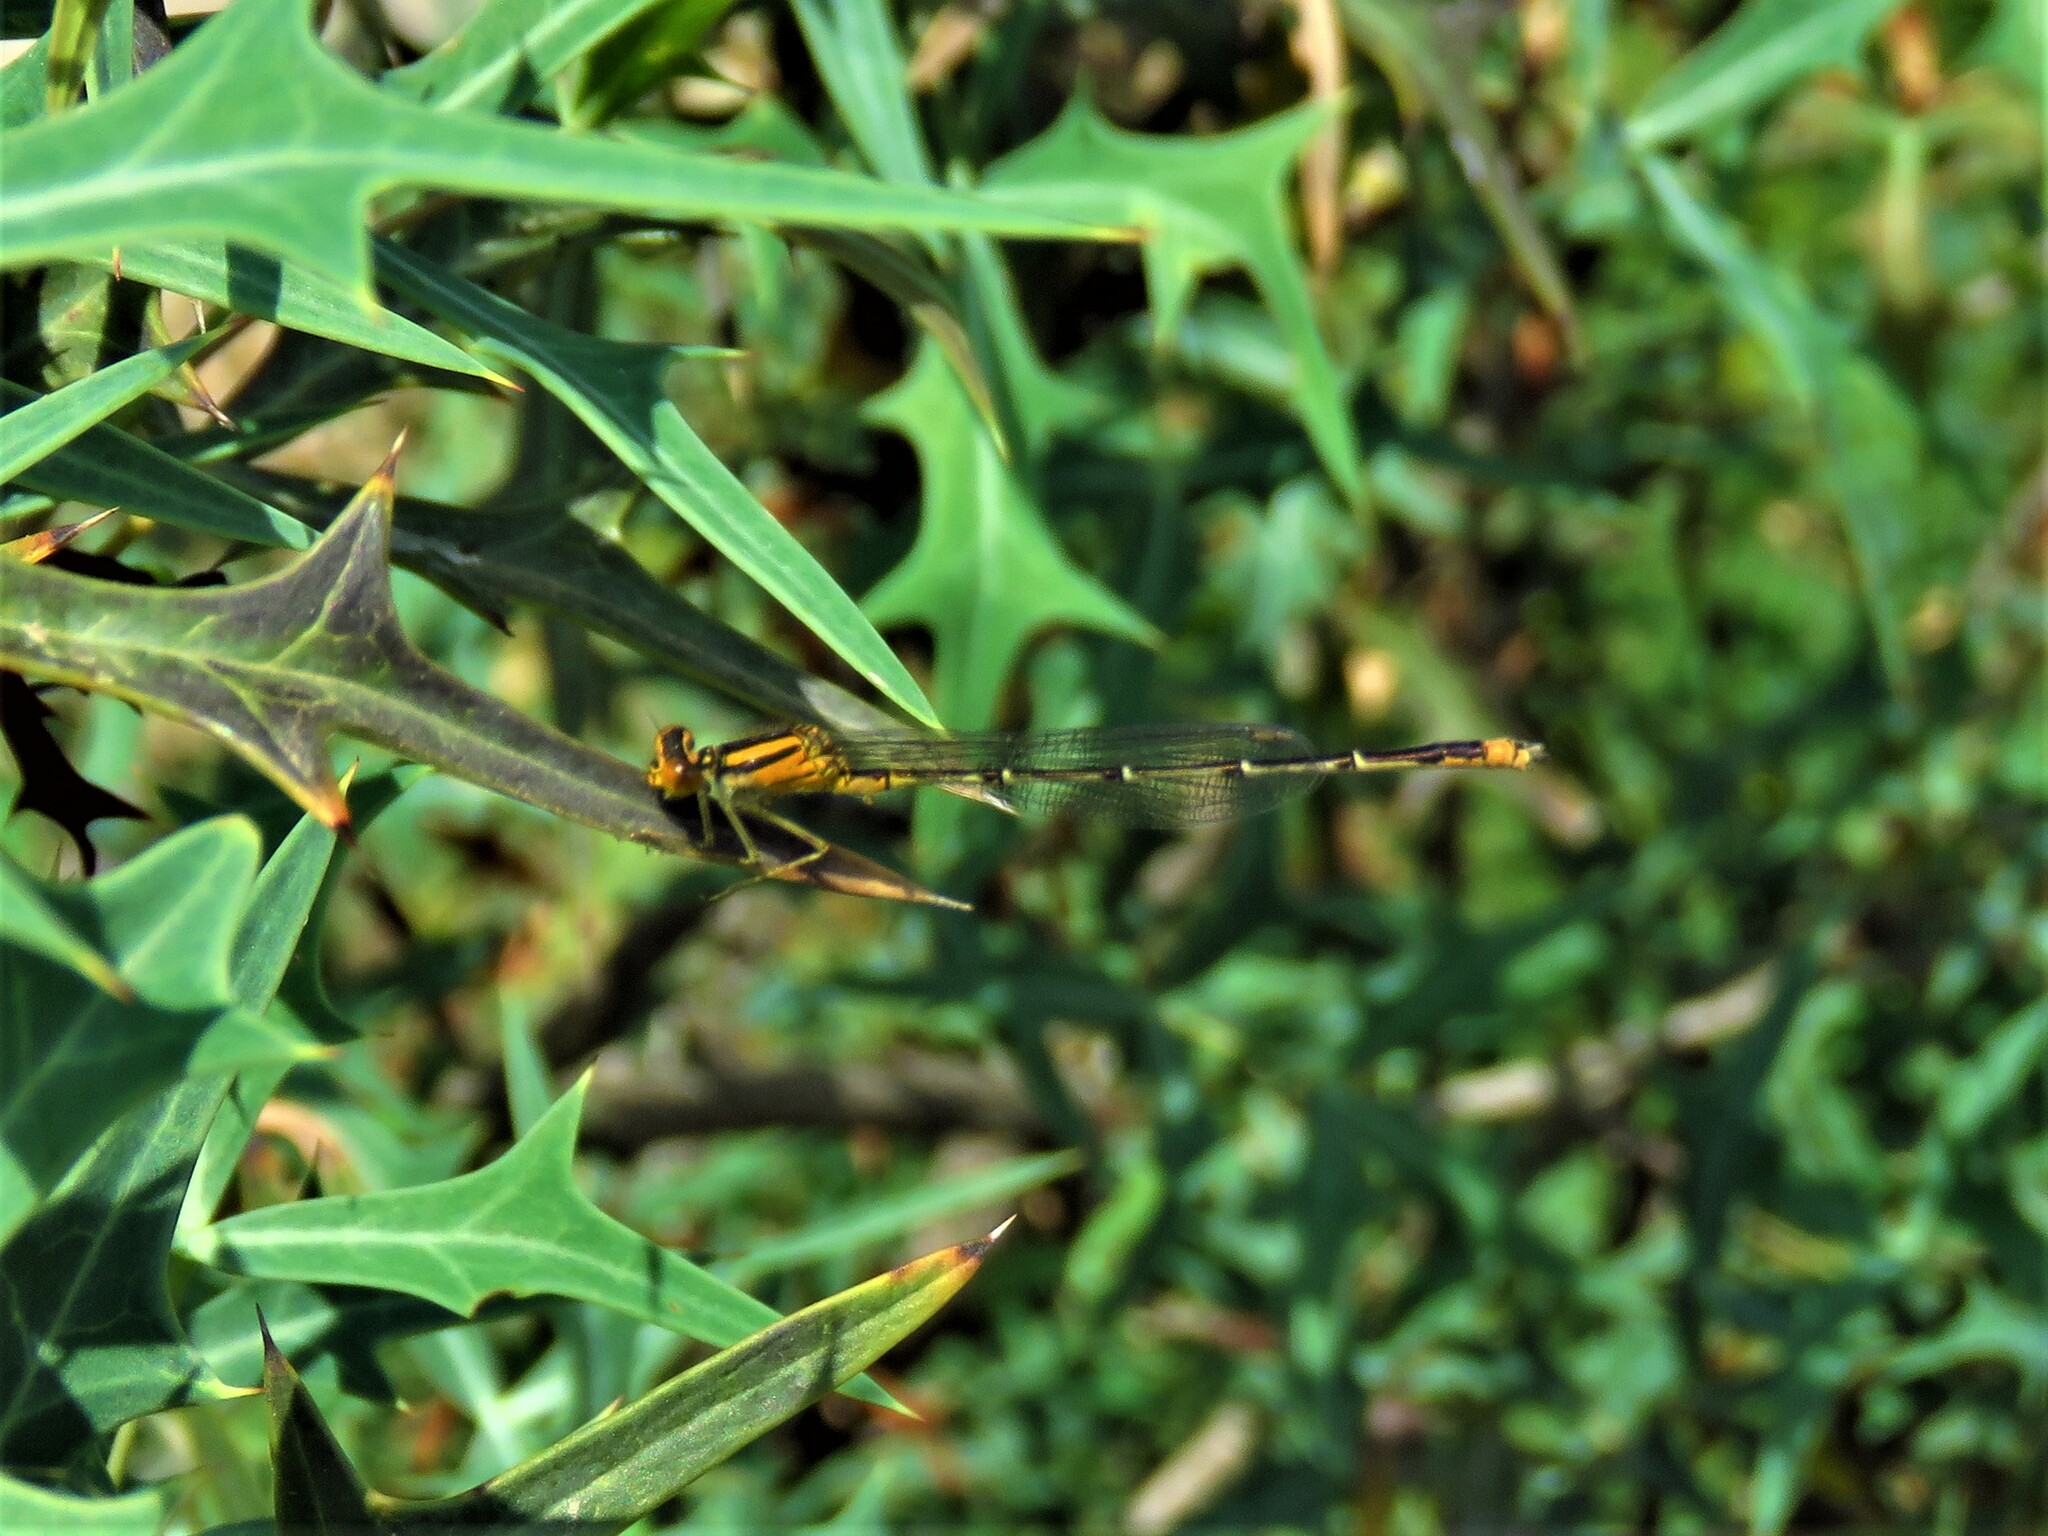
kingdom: Animalia
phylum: Arthropoda
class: Insecta
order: Odonata
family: Coenagrionidae
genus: Enallagma
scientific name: Enallagma signatum
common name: Orange bluet
